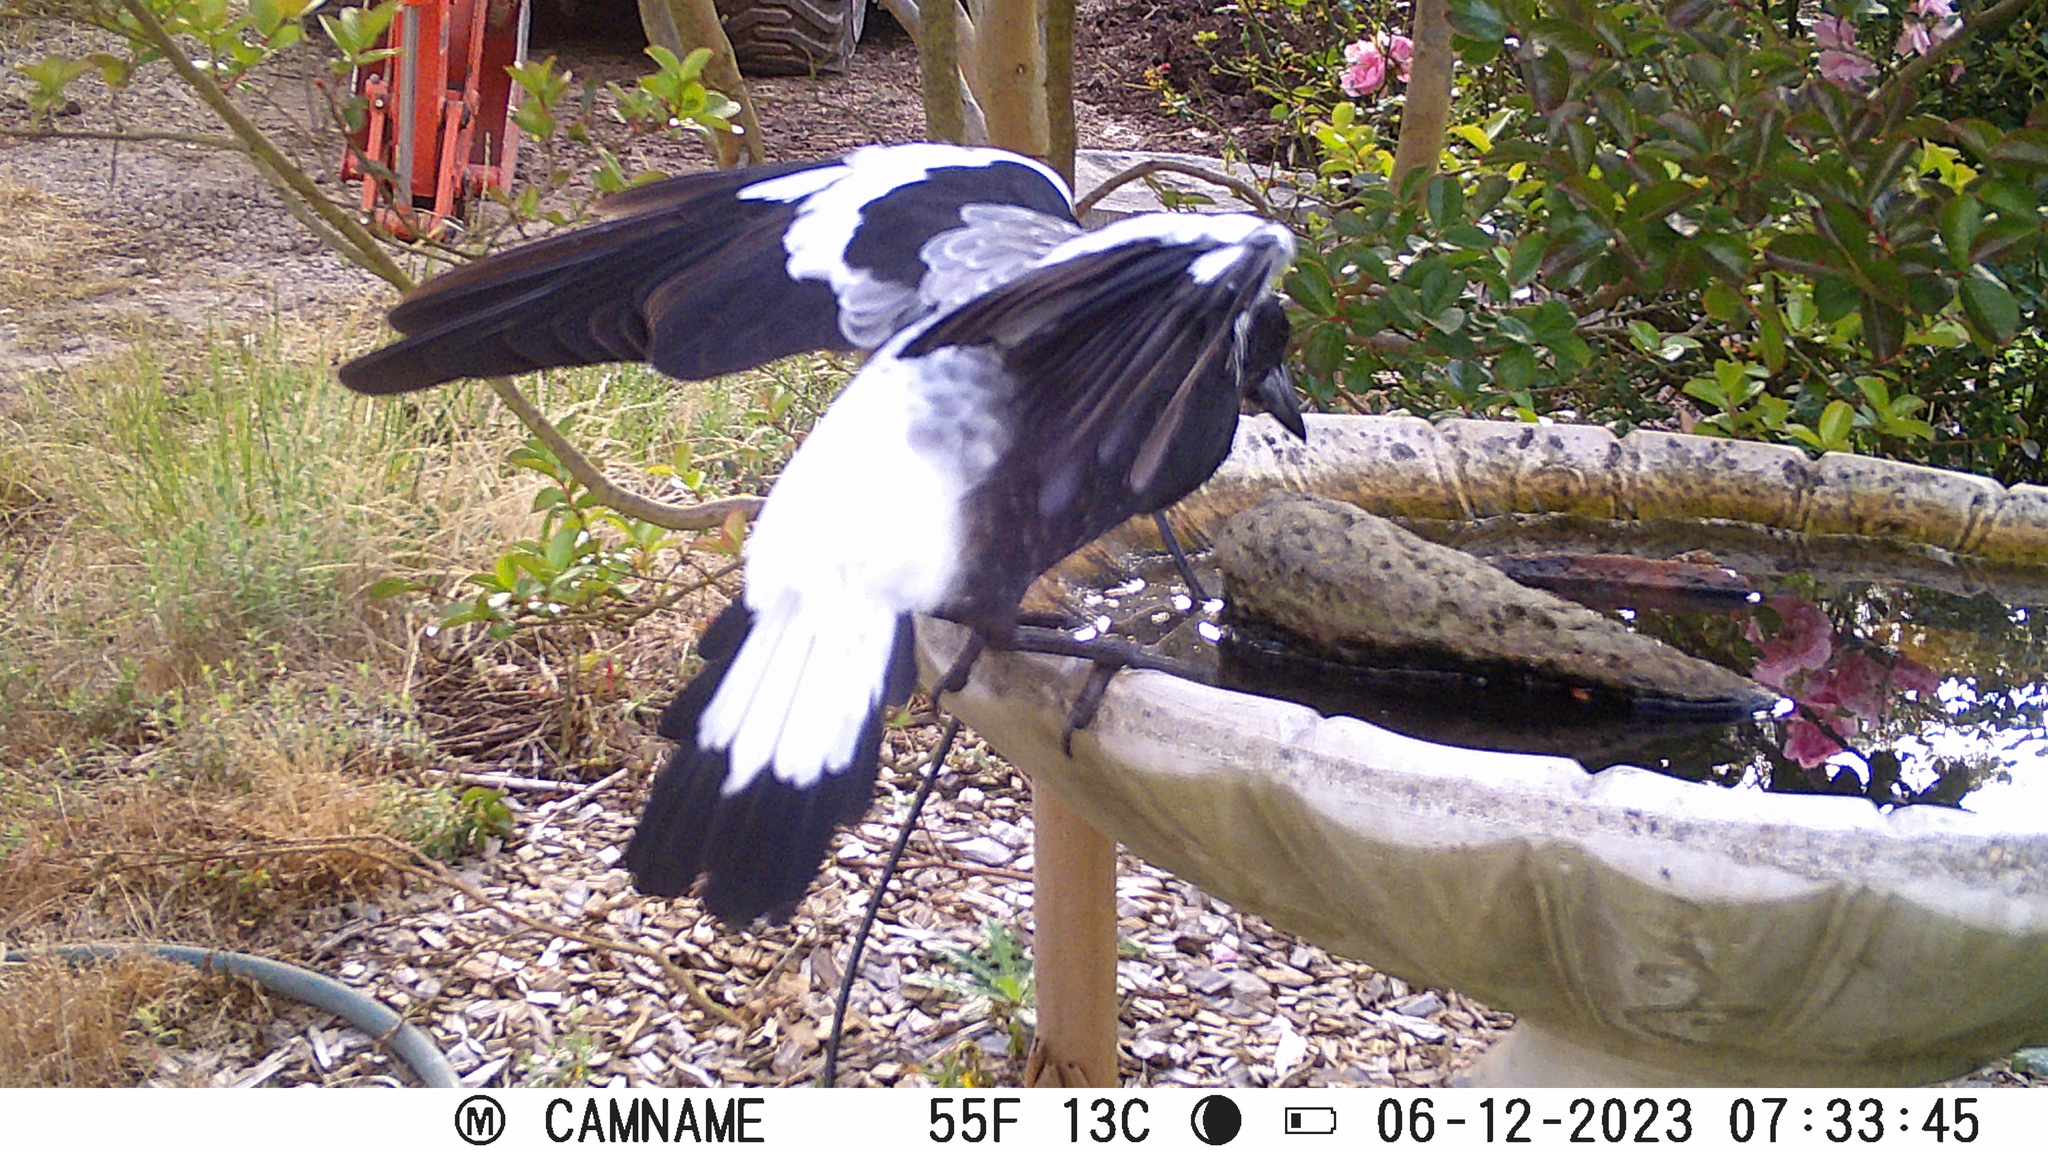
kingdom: Animalia
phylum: Chordata
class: Aves
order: Passeriformes
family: Cracticidae
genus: Gymnorhina
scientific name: Gymnorhina tibicen
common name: Australian magpie
